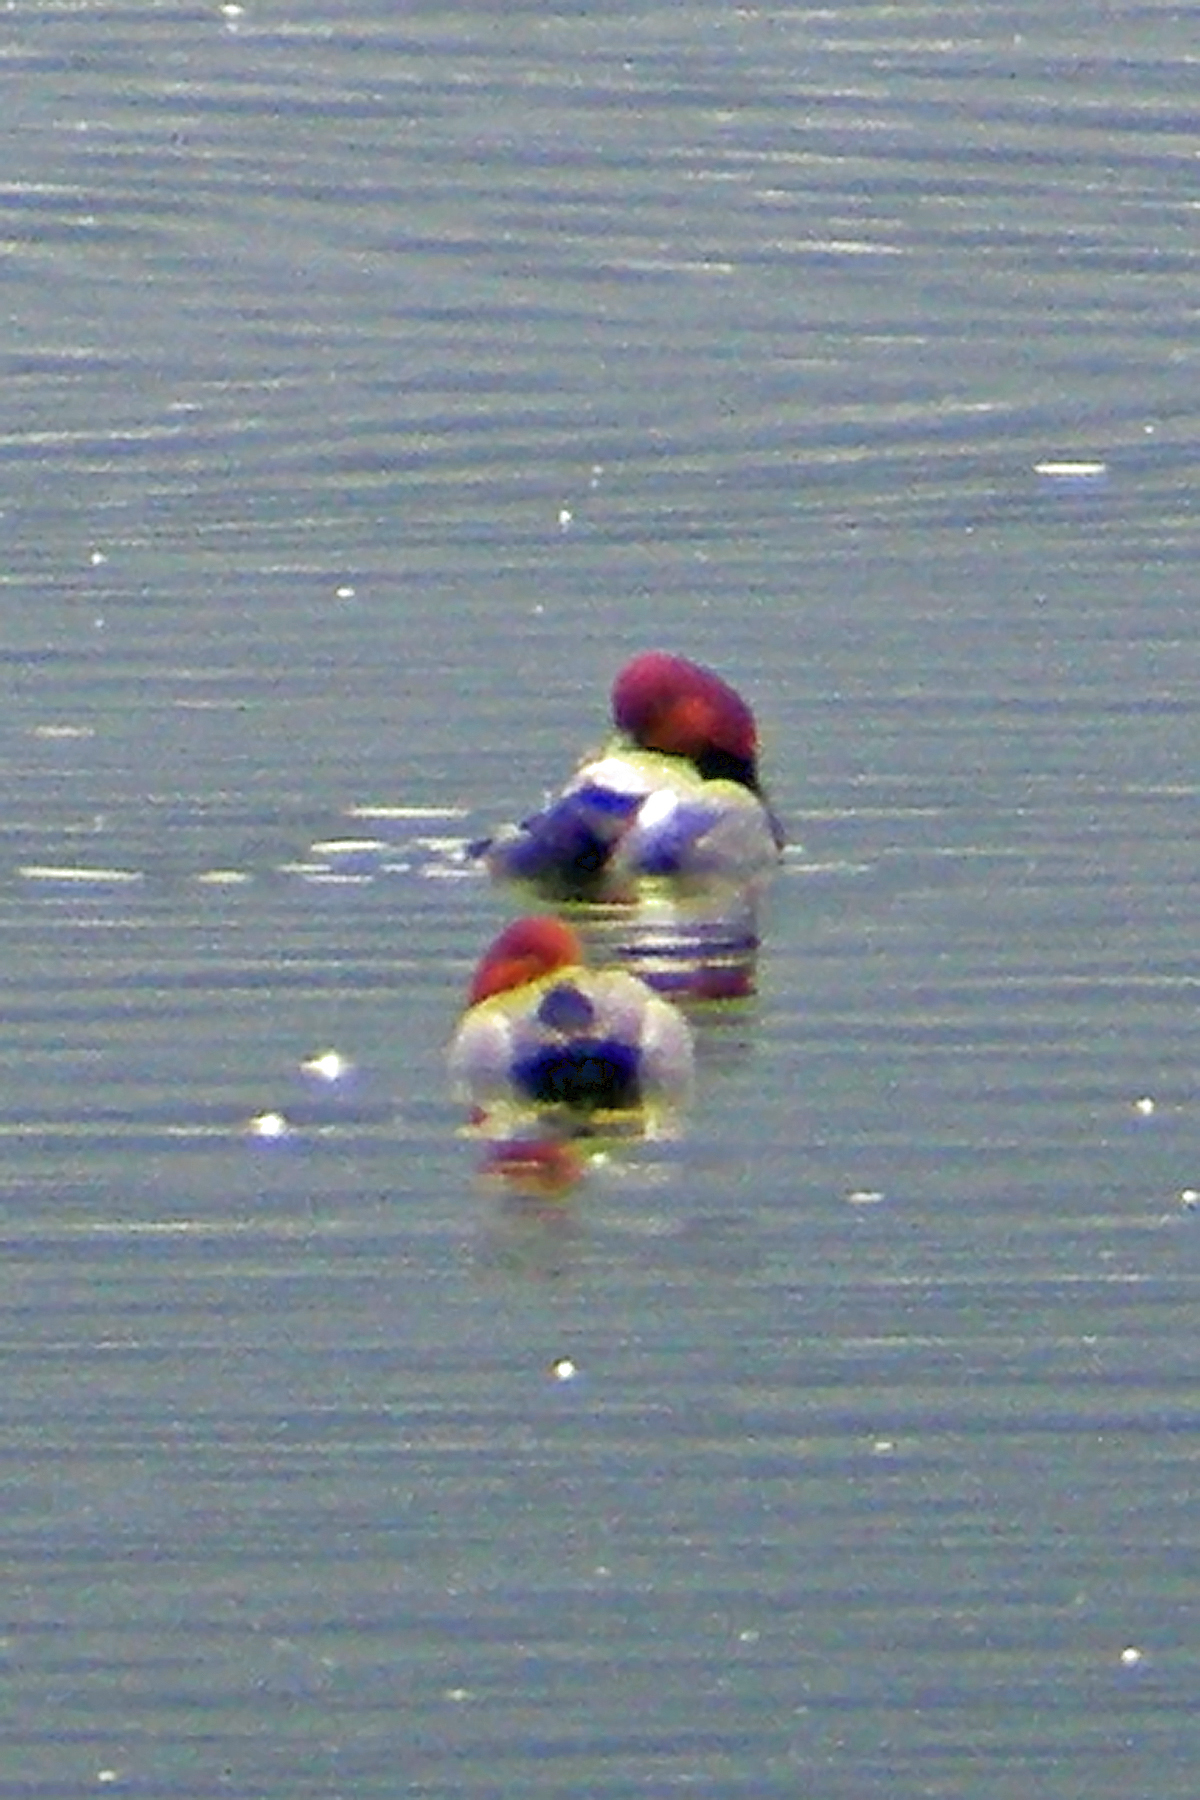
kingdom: Animalia
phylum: Chordata
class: Aves
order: Anseriformes
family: Anatidae
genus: Aythya
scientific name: Aythya americana
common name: Redhead
